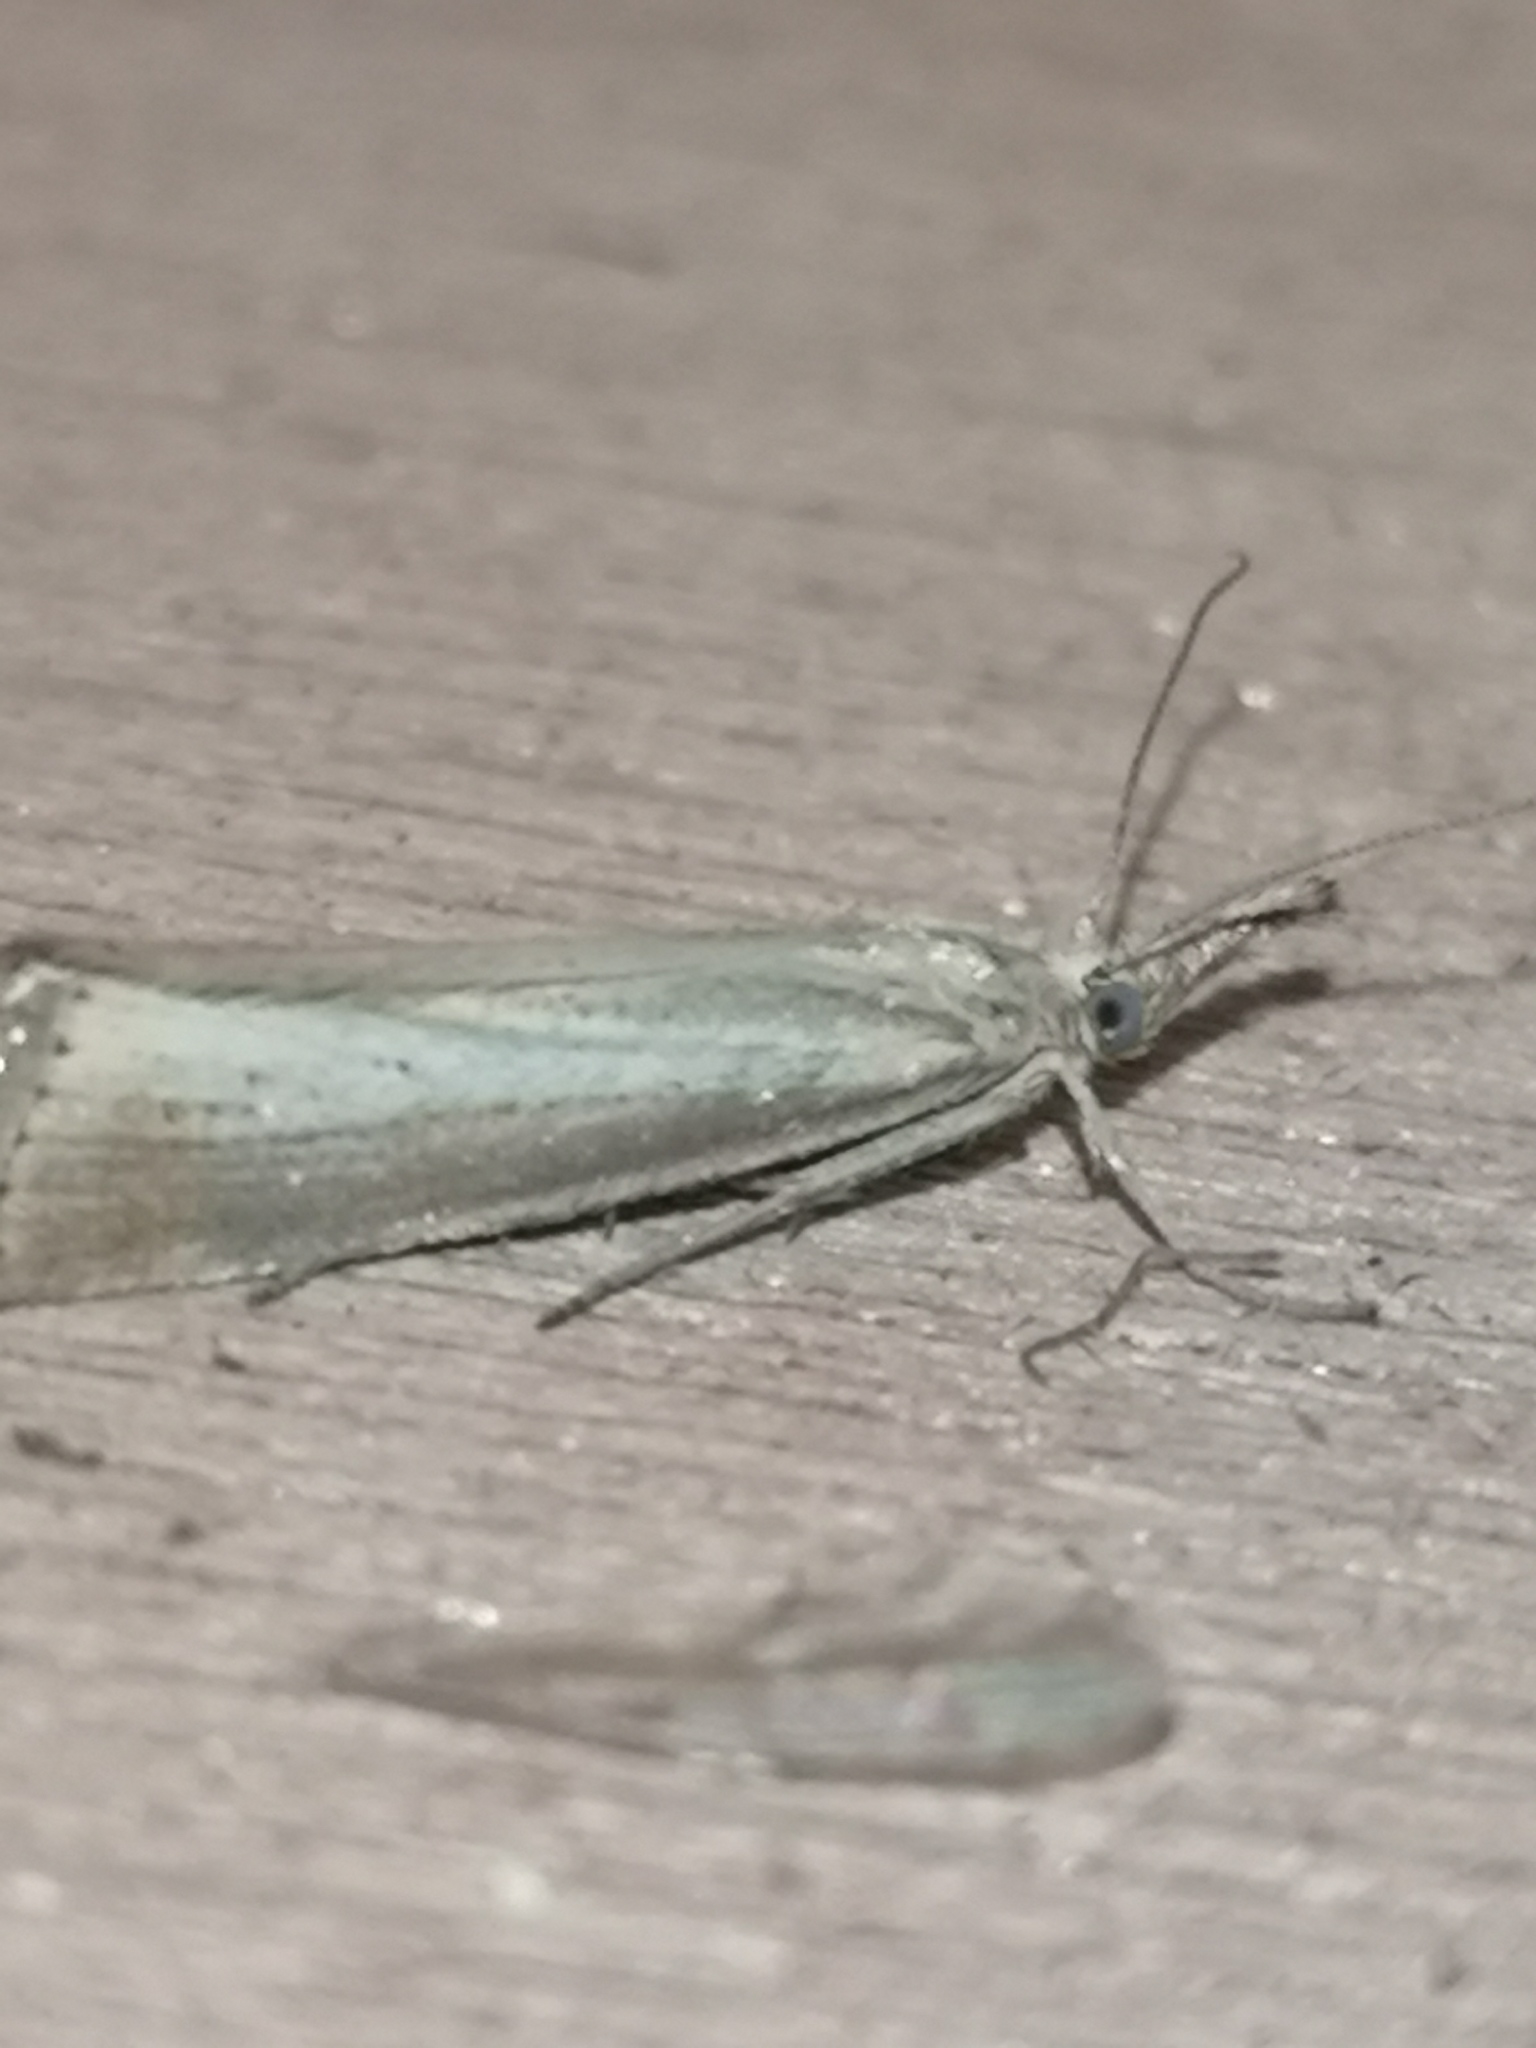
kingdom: Animalia
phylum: Arthropoda
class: Insecta
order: Lepidoptera
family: Crambidae
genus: Agriphila
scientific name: Agriphila straminella
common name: Straw grass-veneer
